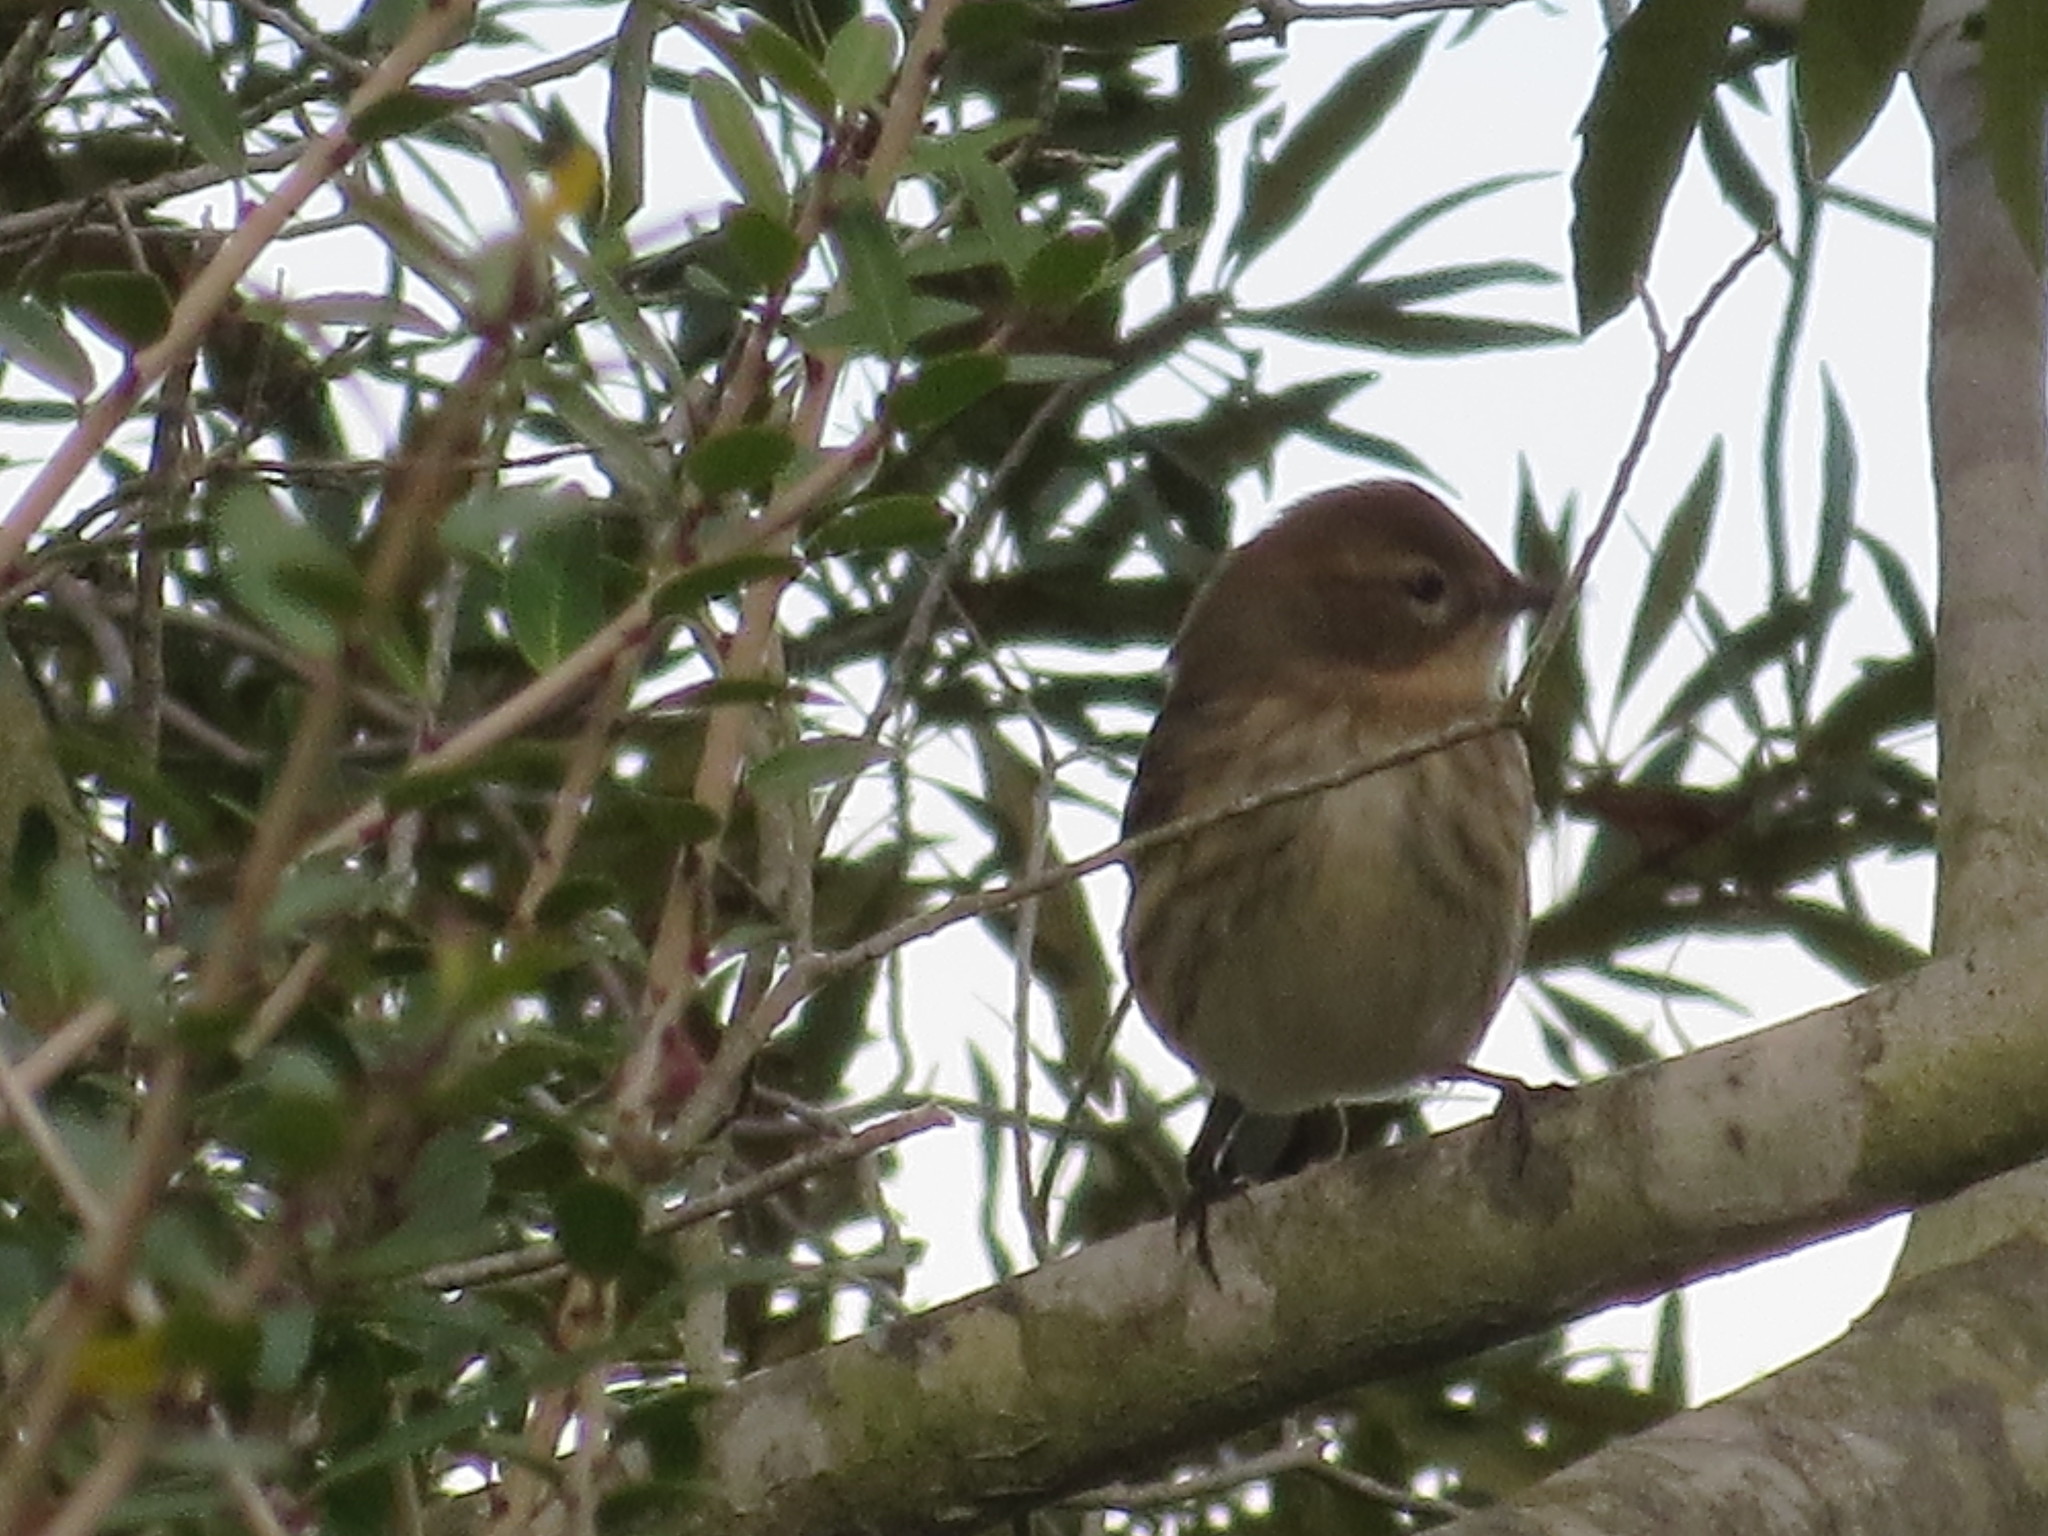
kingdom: Animalia
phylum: Chordata
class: Aves
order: Passeriformes
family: Parulidae
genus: Setophaga
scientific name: Setophaga coronata
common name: Myrtle warbler
